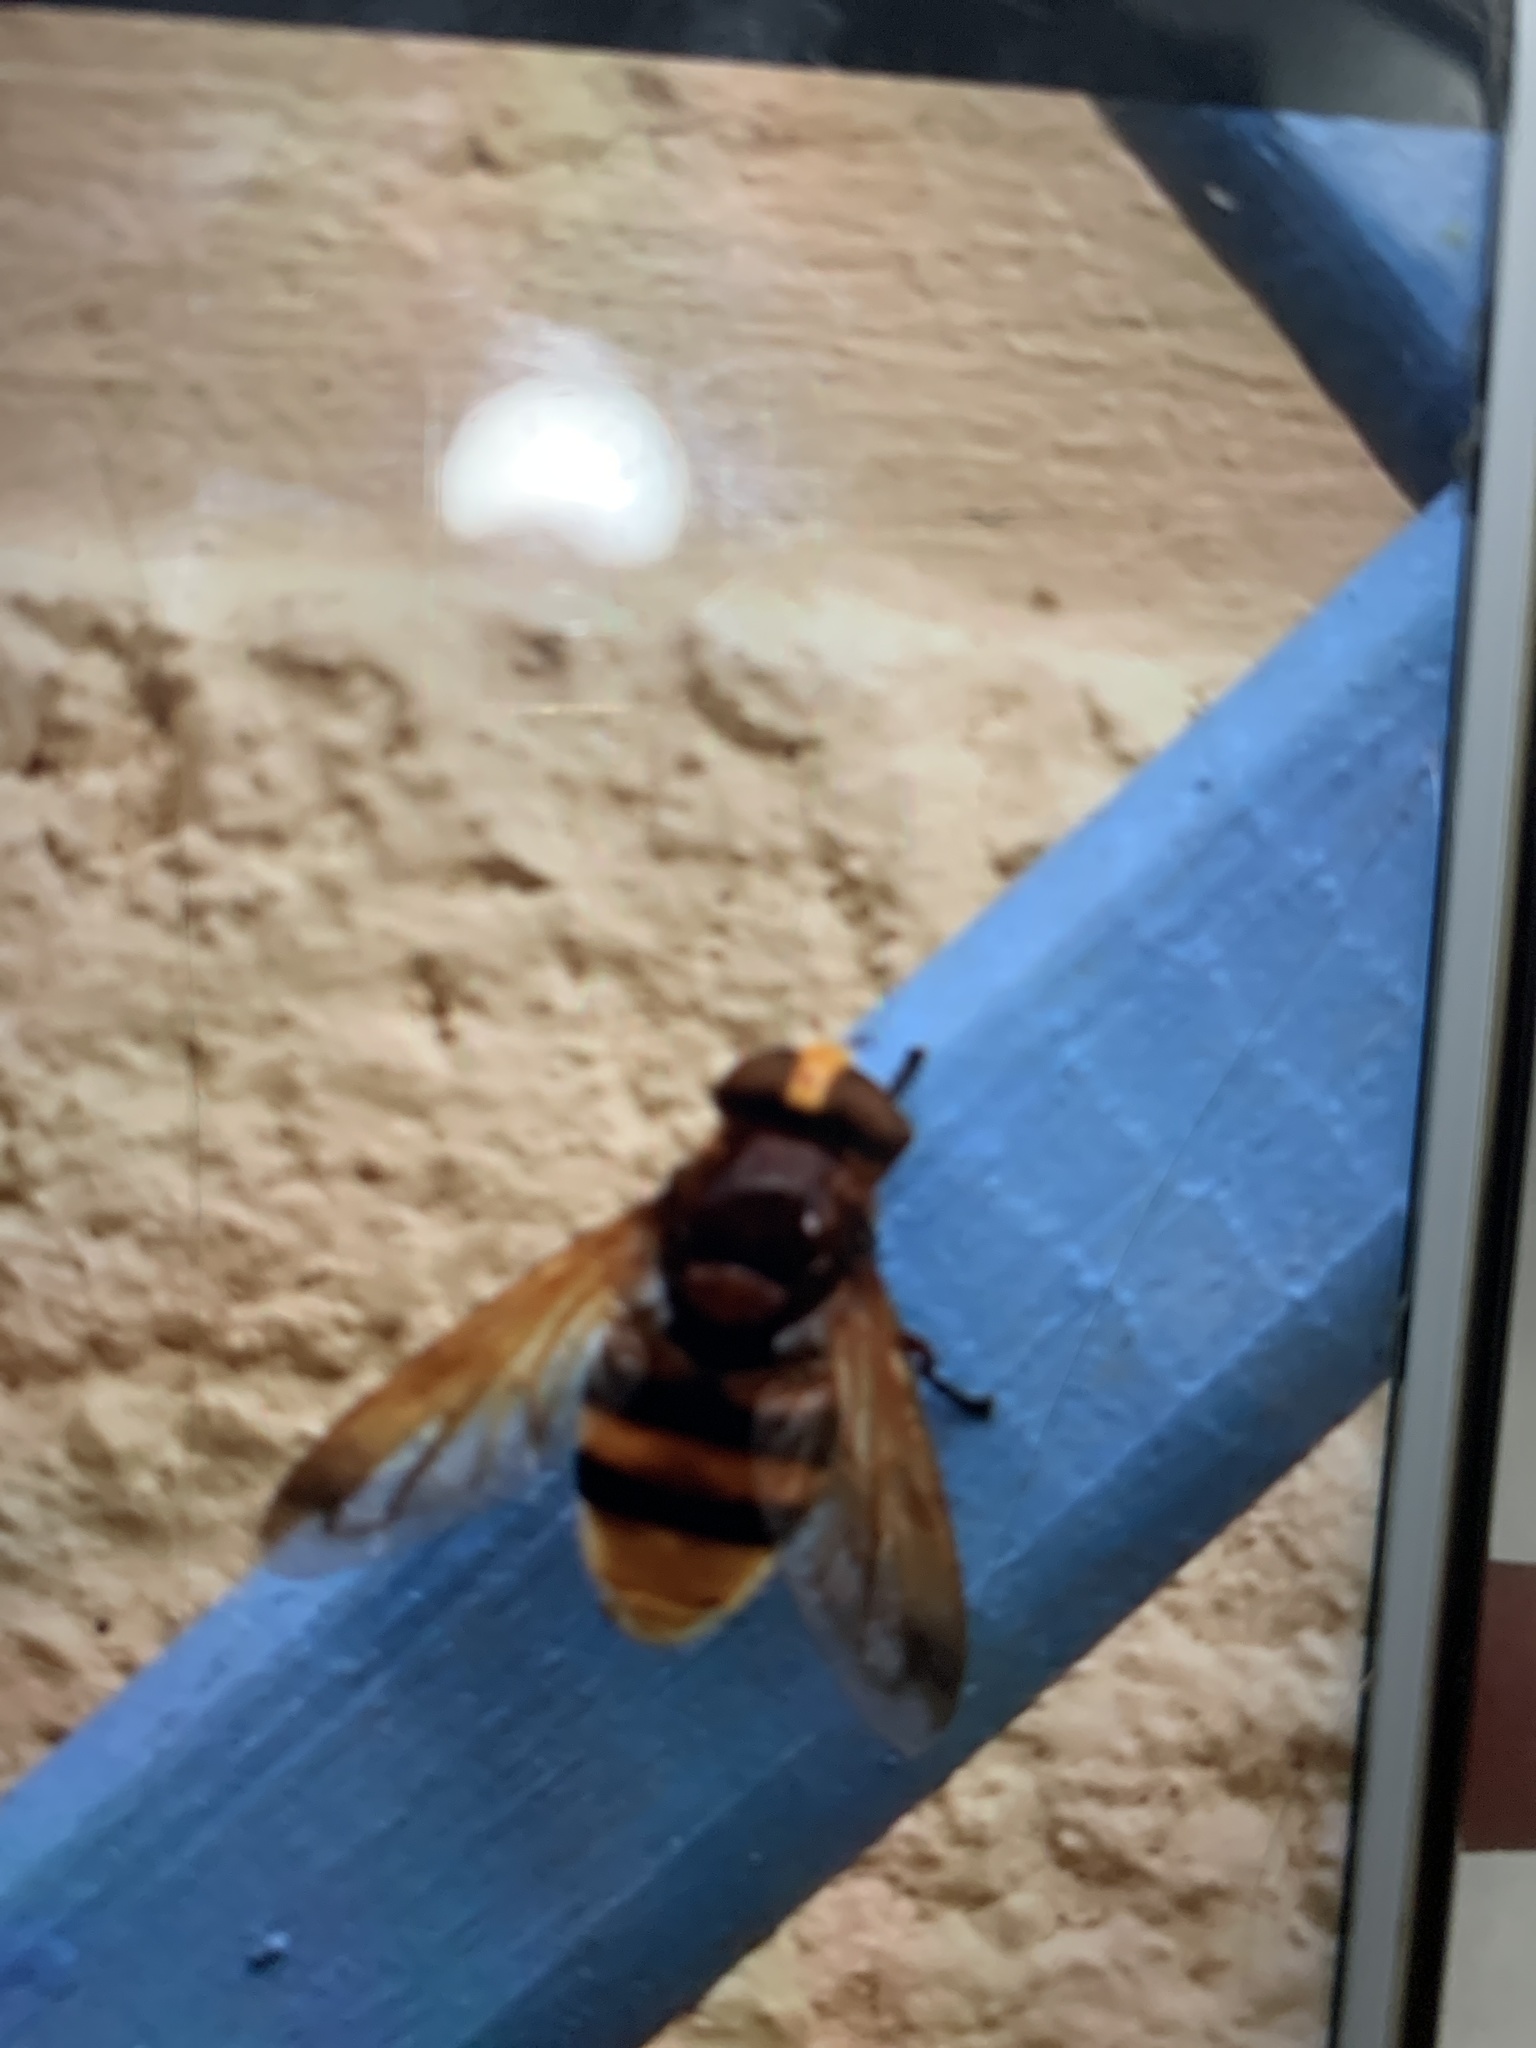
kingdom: Animalia
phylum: Arthropoda
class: Insecta
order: Diptera
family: Syrphidae
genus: Volucella
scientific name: Volucella zonaria
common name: Hornet hoverfly
